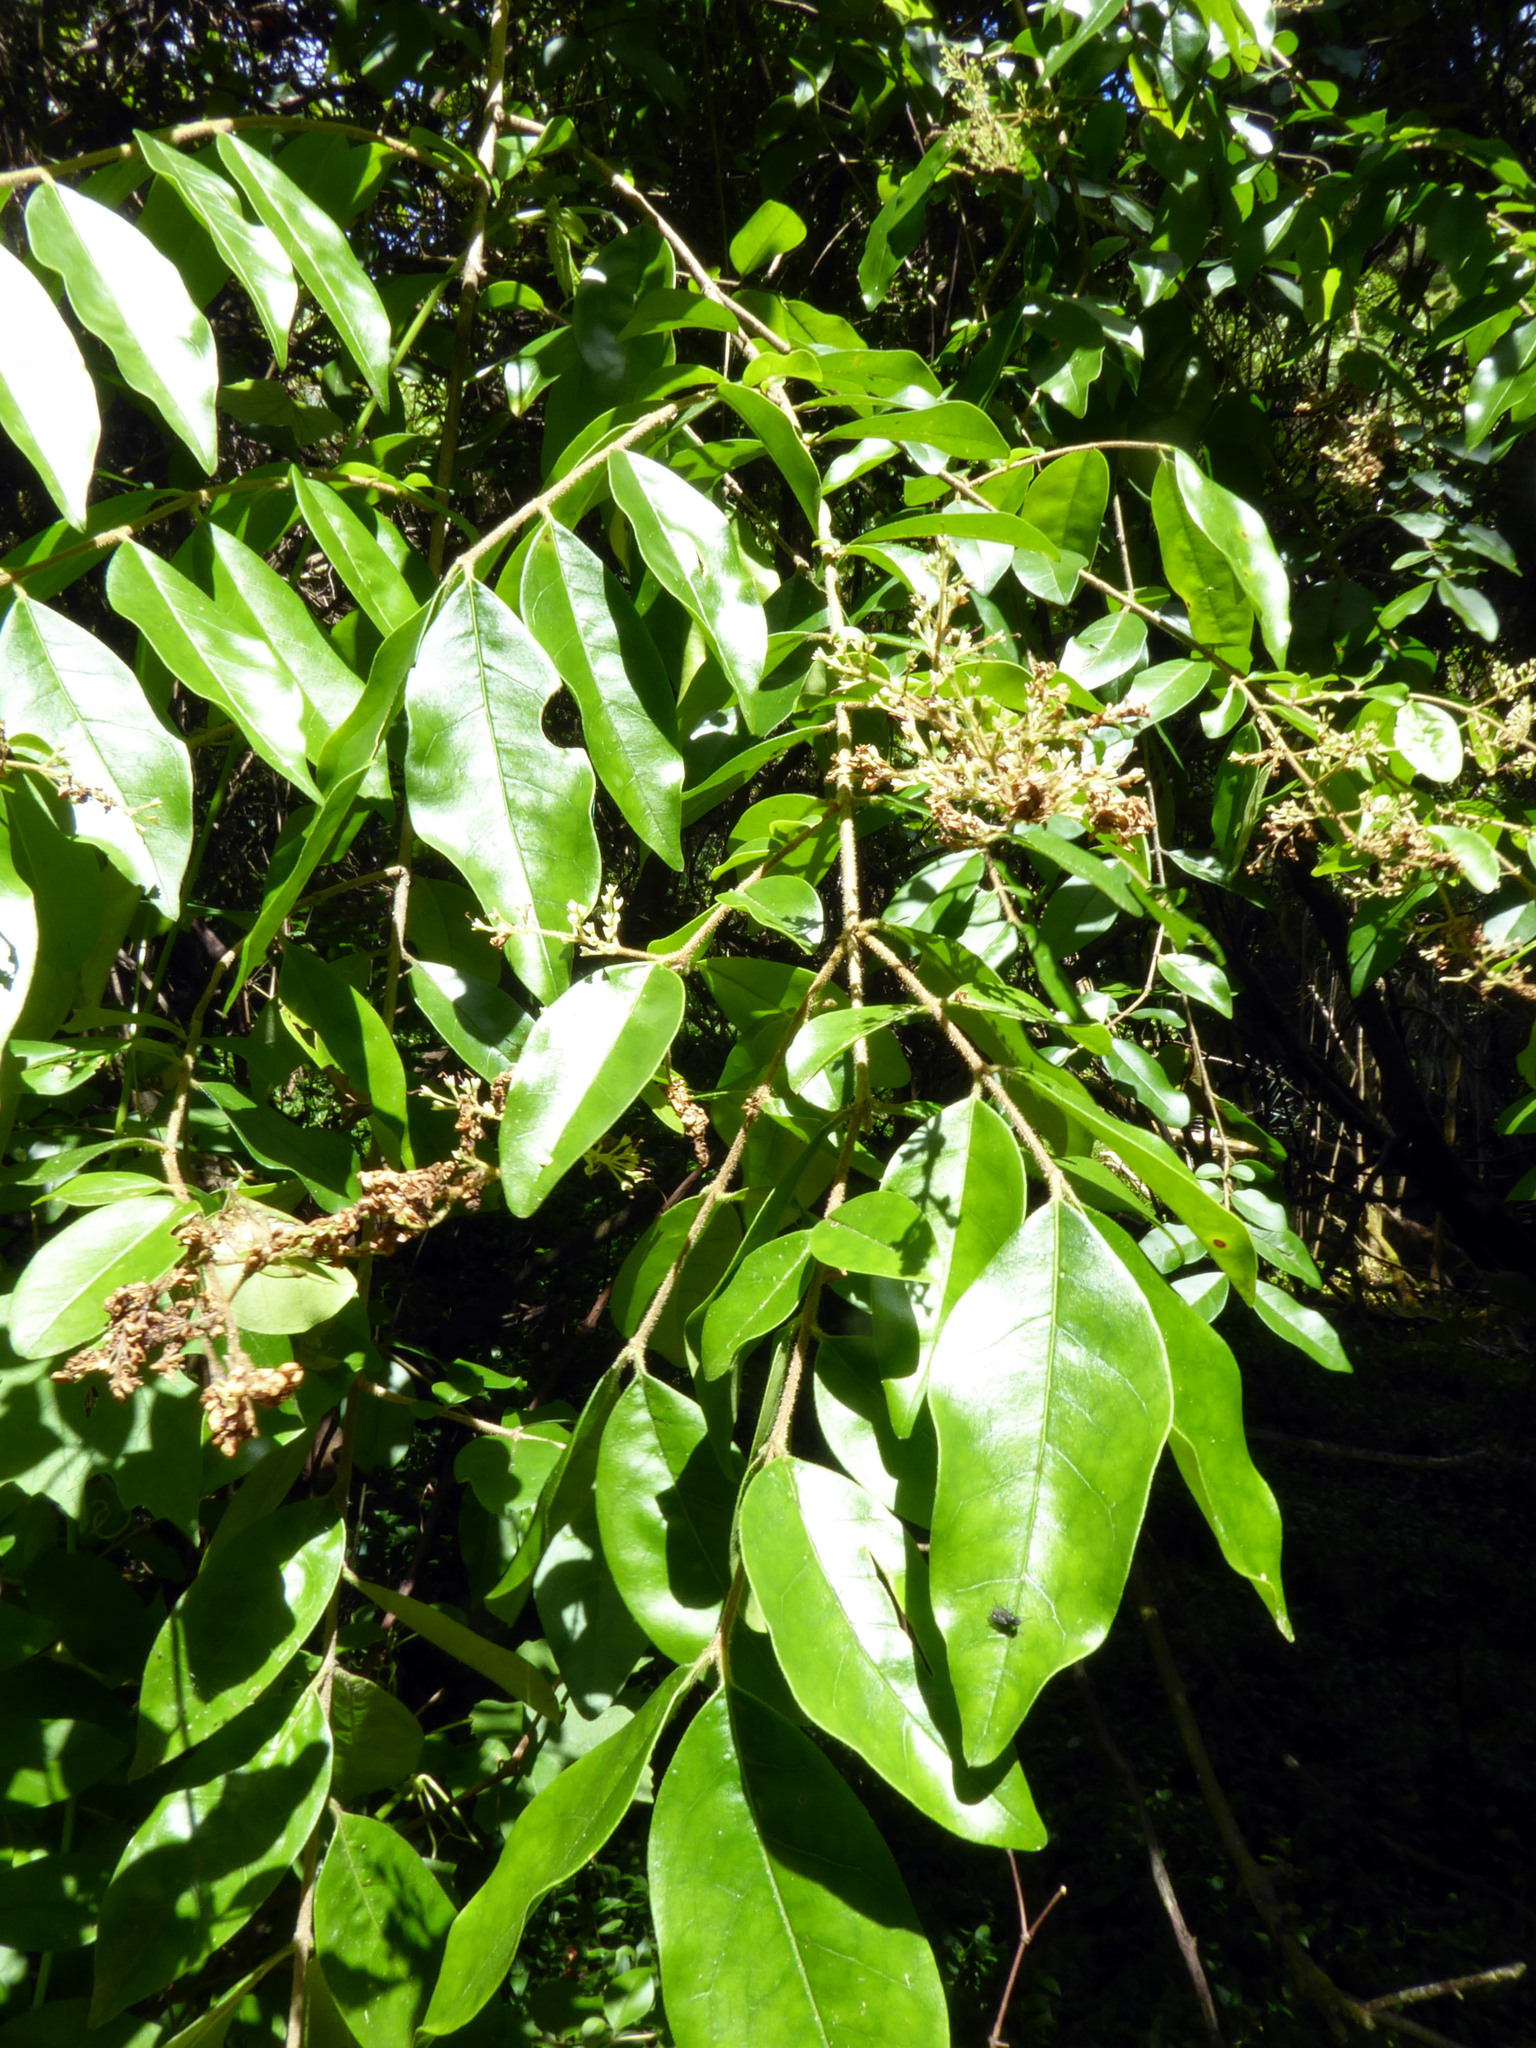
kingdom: Plantae
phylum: Tracheophyta
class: Magnoliopsida
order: Lamiales
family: Oleaceae
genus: Ligustrum
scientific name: Ligustrum sinense
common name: Chinese privet
